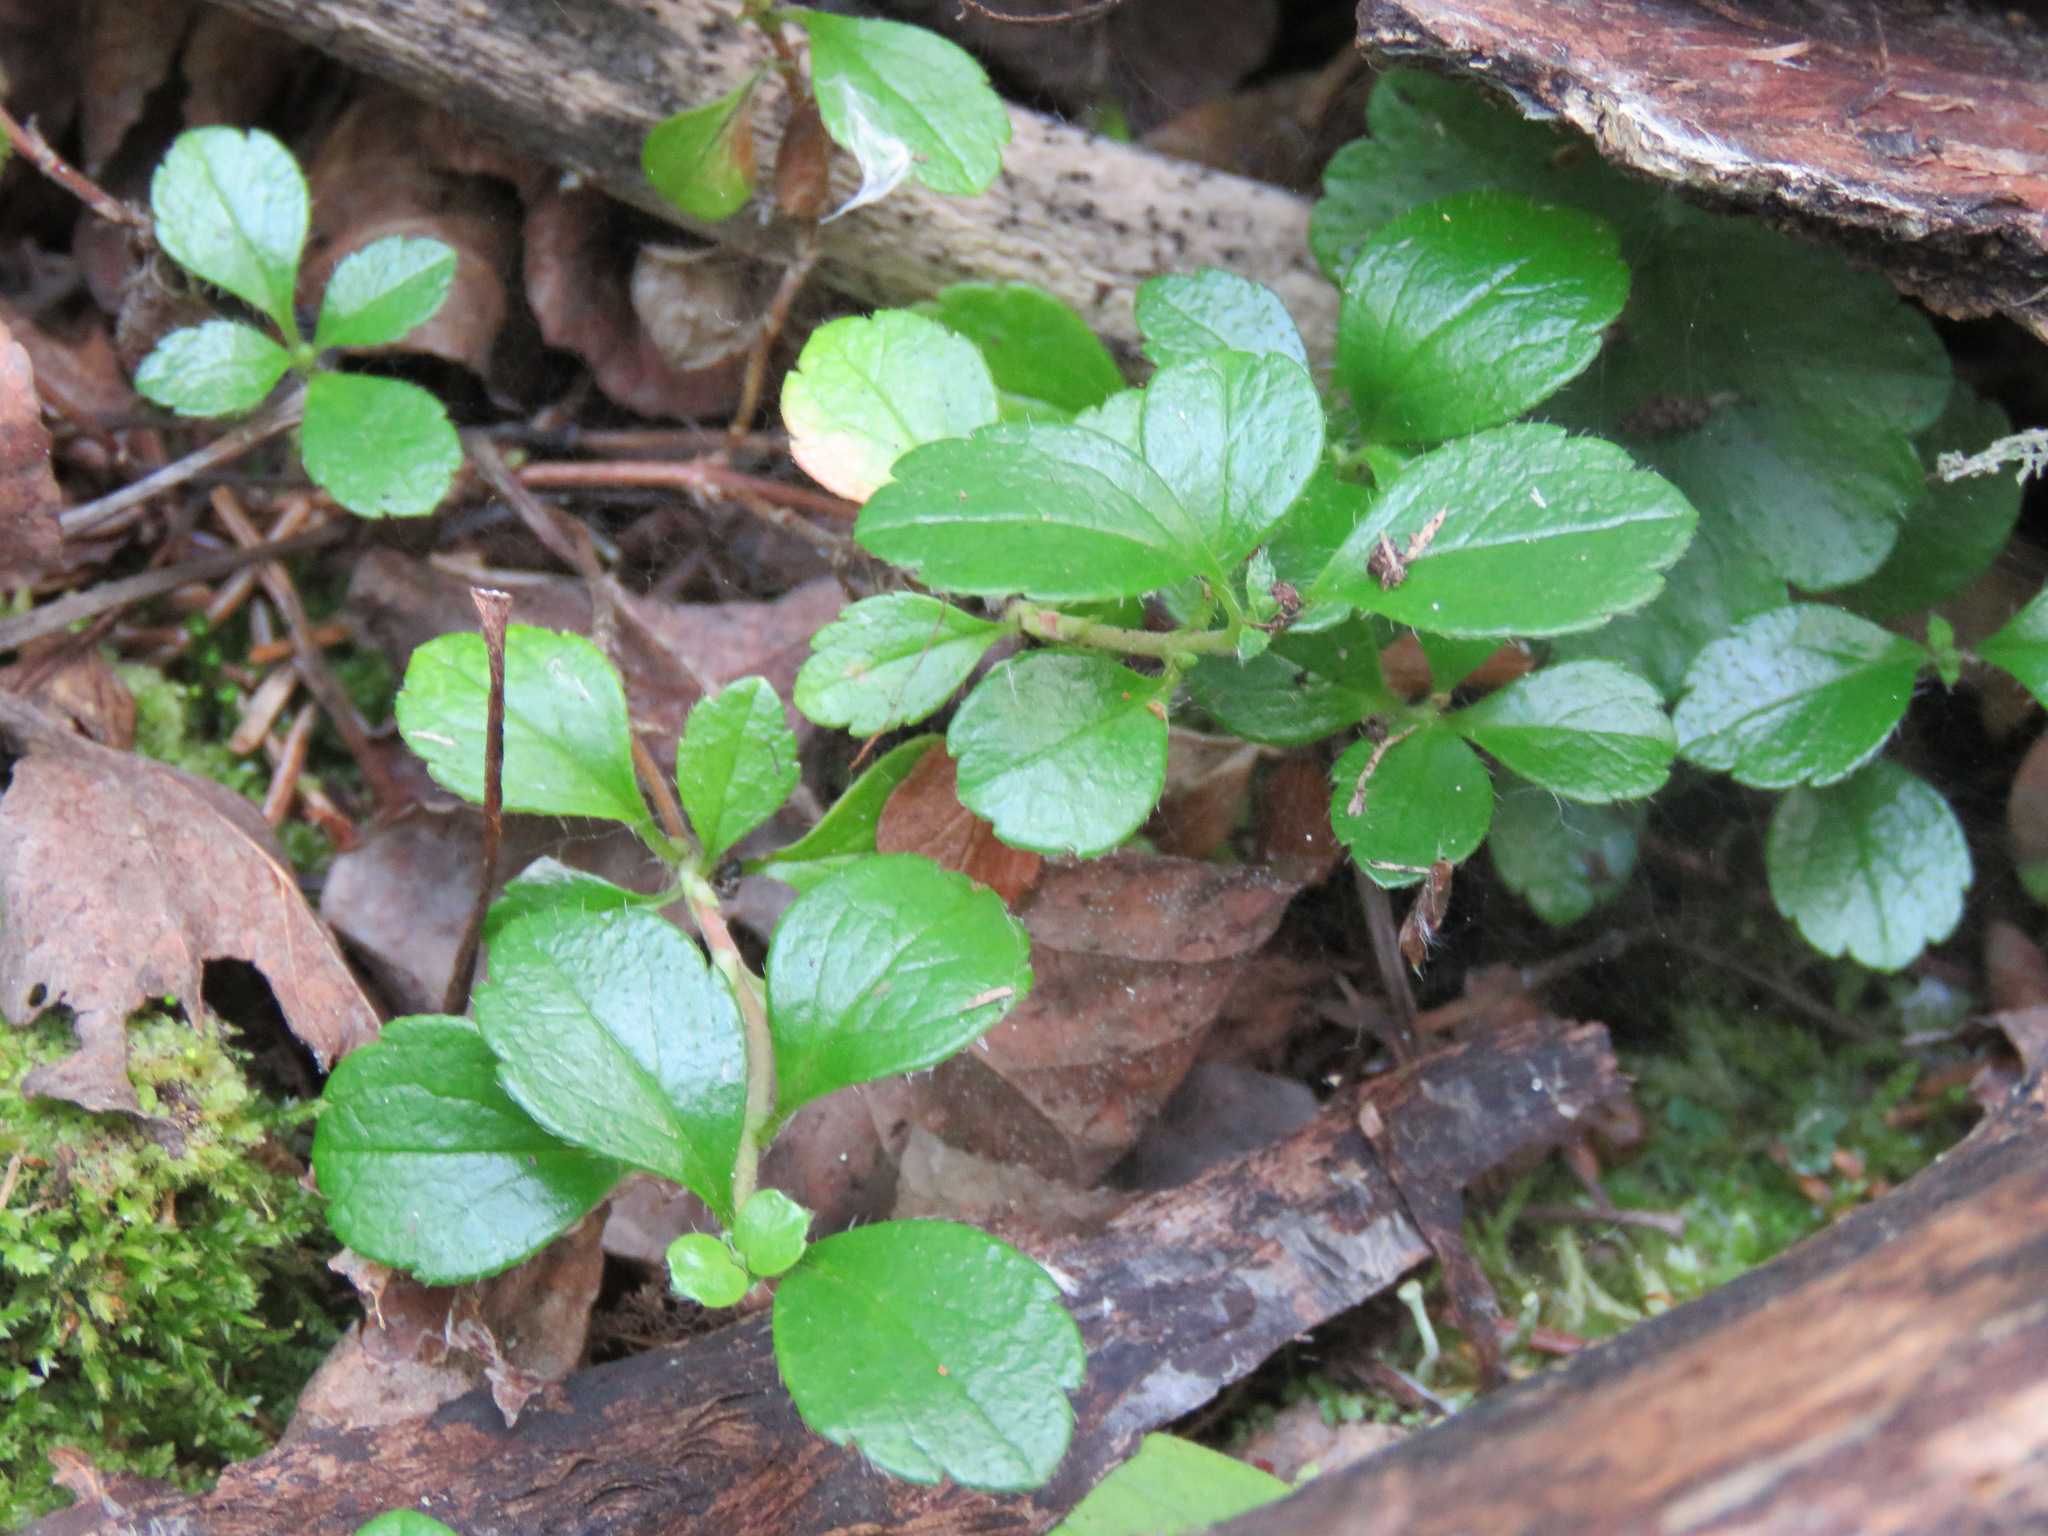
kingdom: Plantae
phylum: Tracheophyta
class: Magnoliopsida
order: Dipsacales
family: Caprifoliaceae
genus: Linnaea
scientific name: Linnaea borealis
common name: Twinflower
